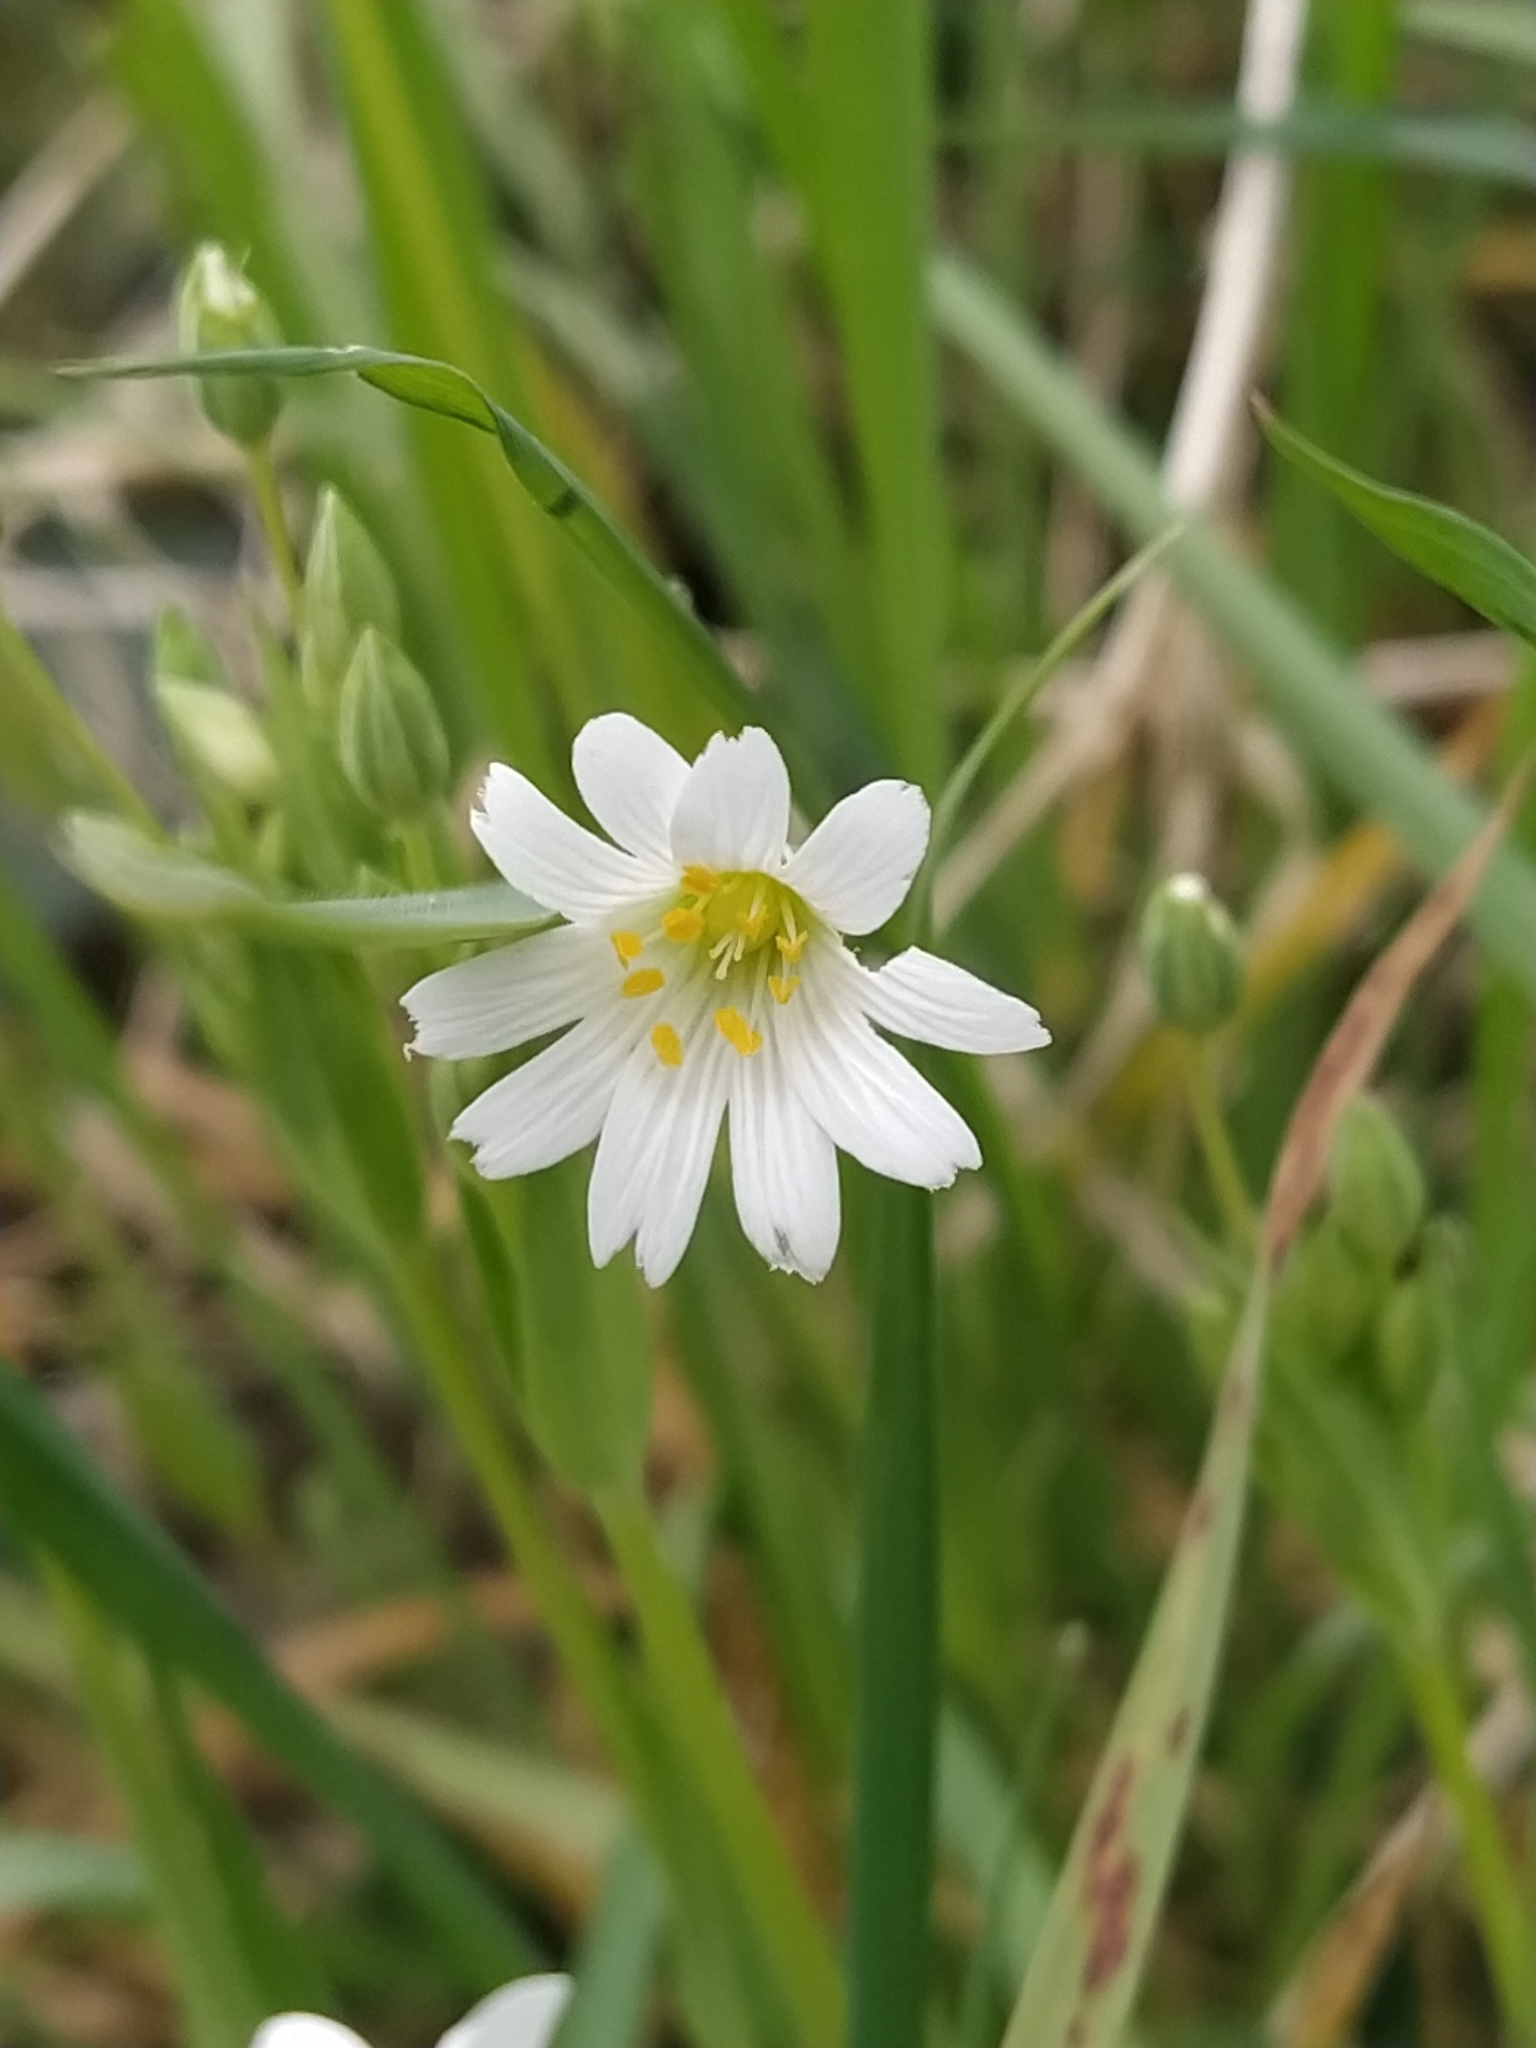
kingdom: Plantae
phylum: Tracheophyta
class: Magnoliopsida
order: Caryophyllales
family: Caryophyllaceae
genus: Rabelera
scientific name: Rabelera holostea
